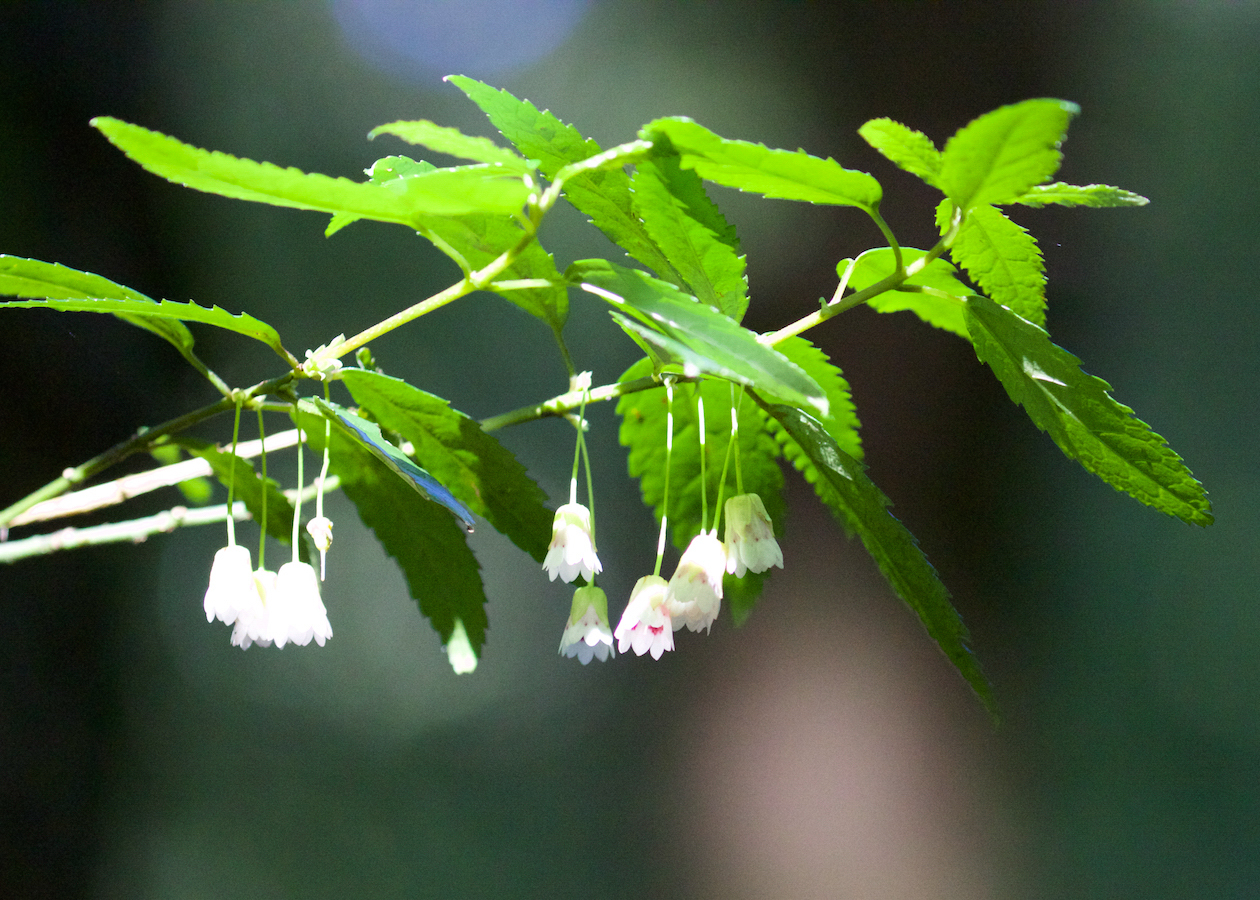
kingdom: Plantae
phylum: Tracheophyta
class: Magnoliopsida
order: Oxalidales
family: Elaeocarpaceae
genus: Aristotelia
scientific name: Aristotelia peduncularis
